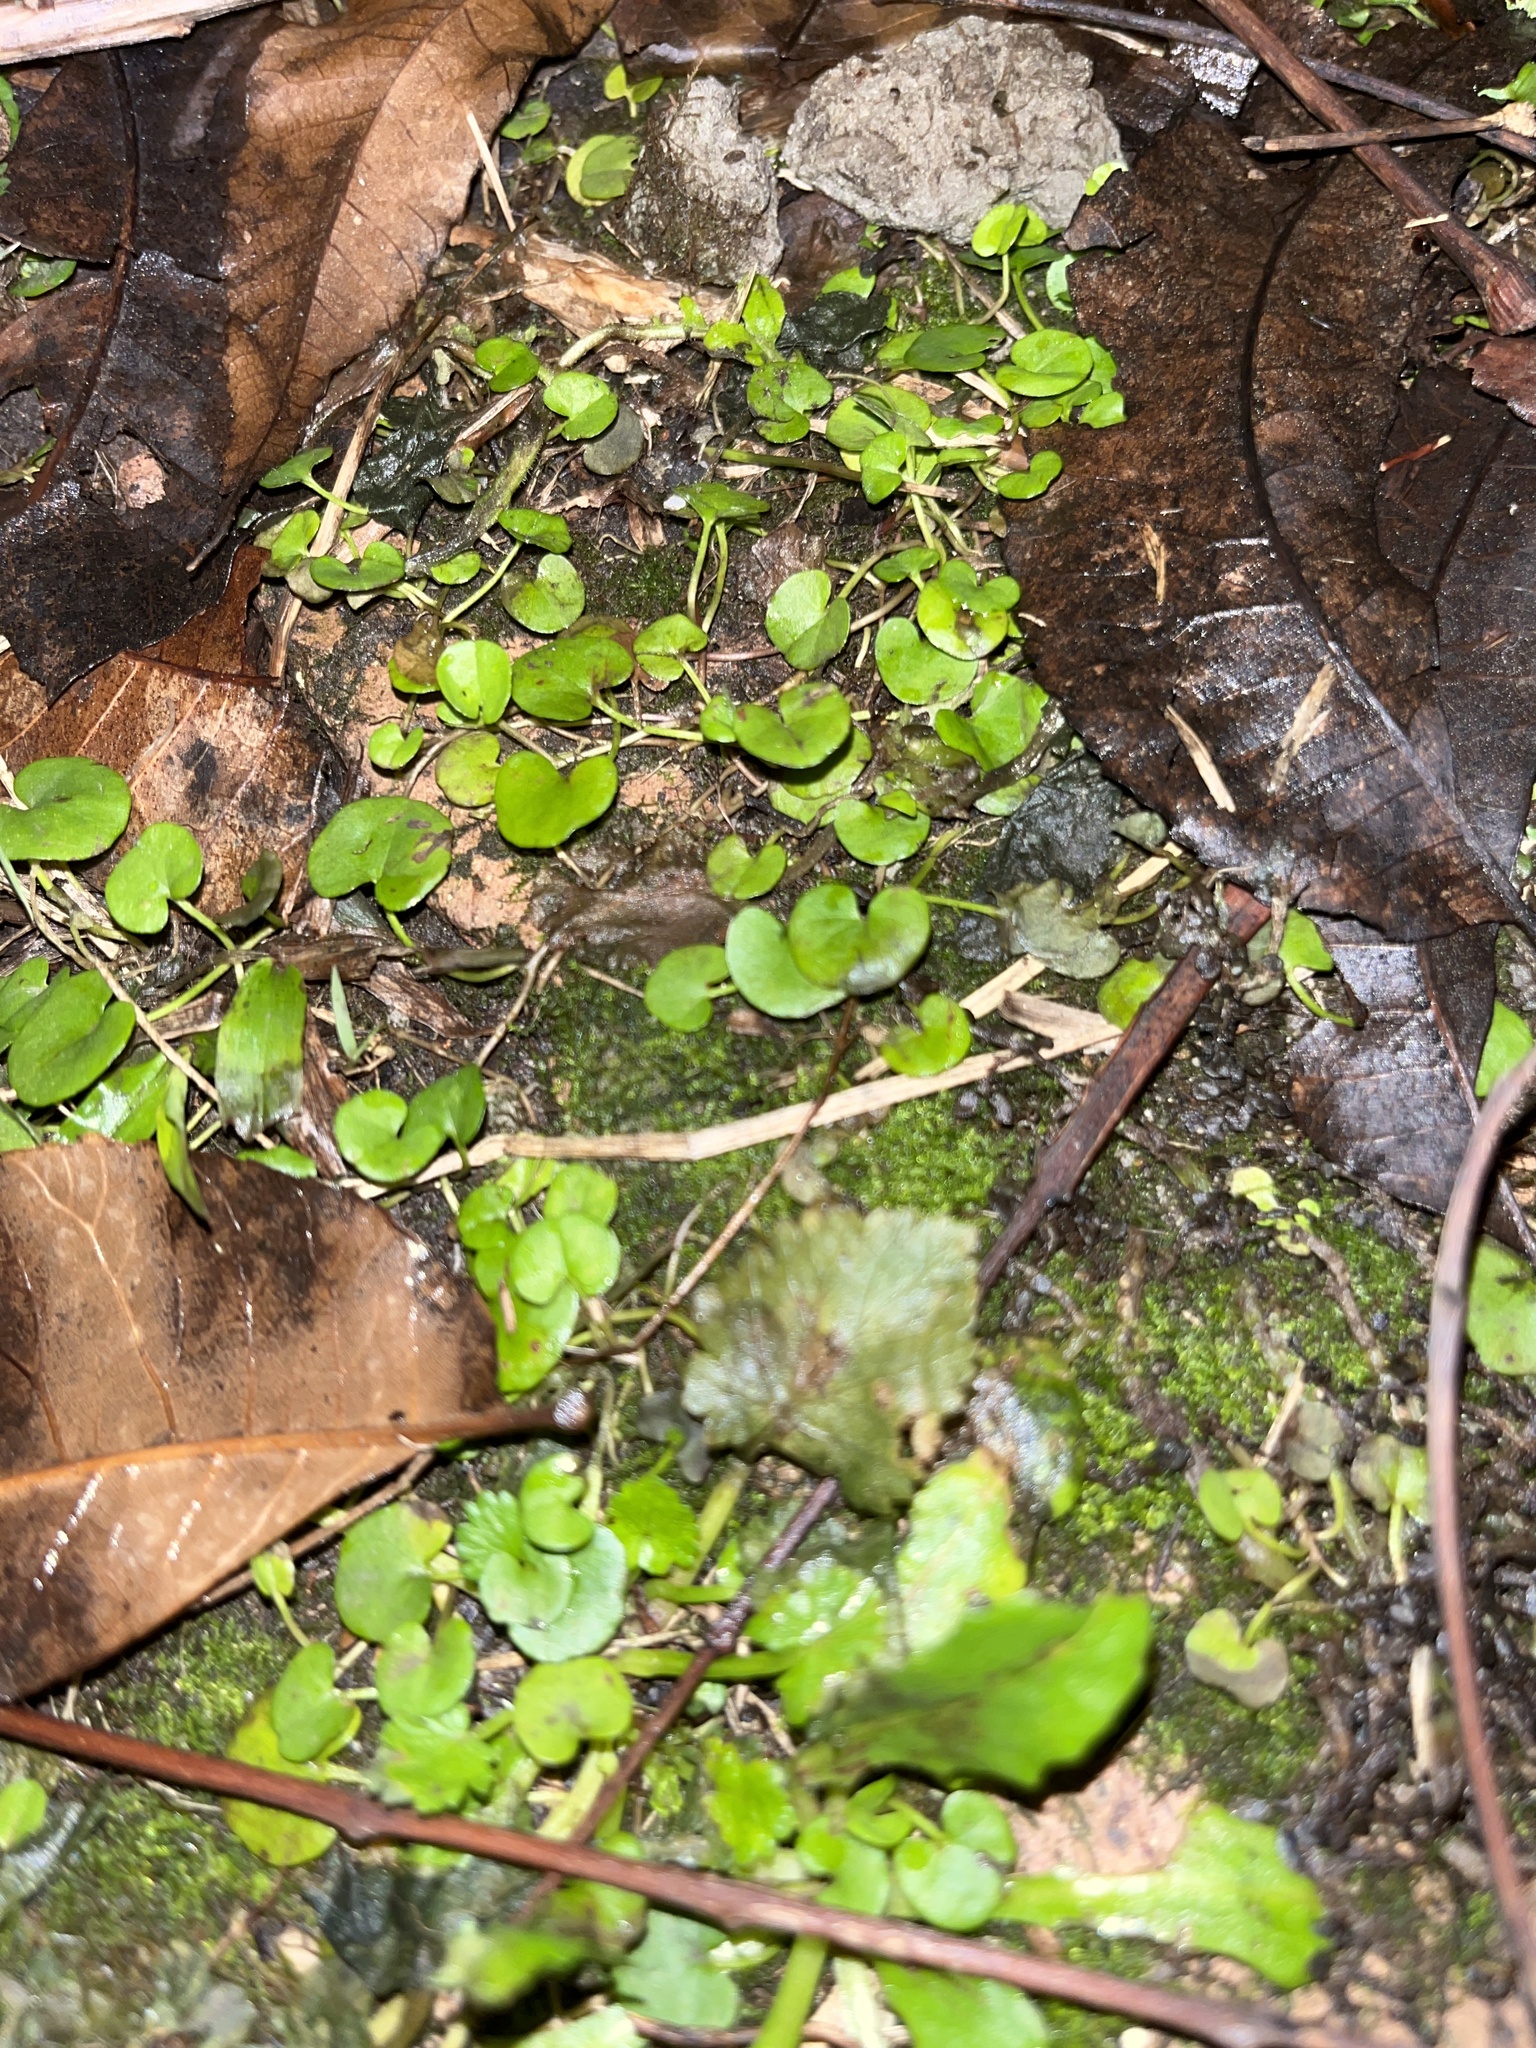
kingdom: Plantae
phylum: Tracheophyta
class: Magnoliopsida
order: Solanales
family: Convolvulaceae
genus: Dichondra
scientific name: Dichondra carolinensis
